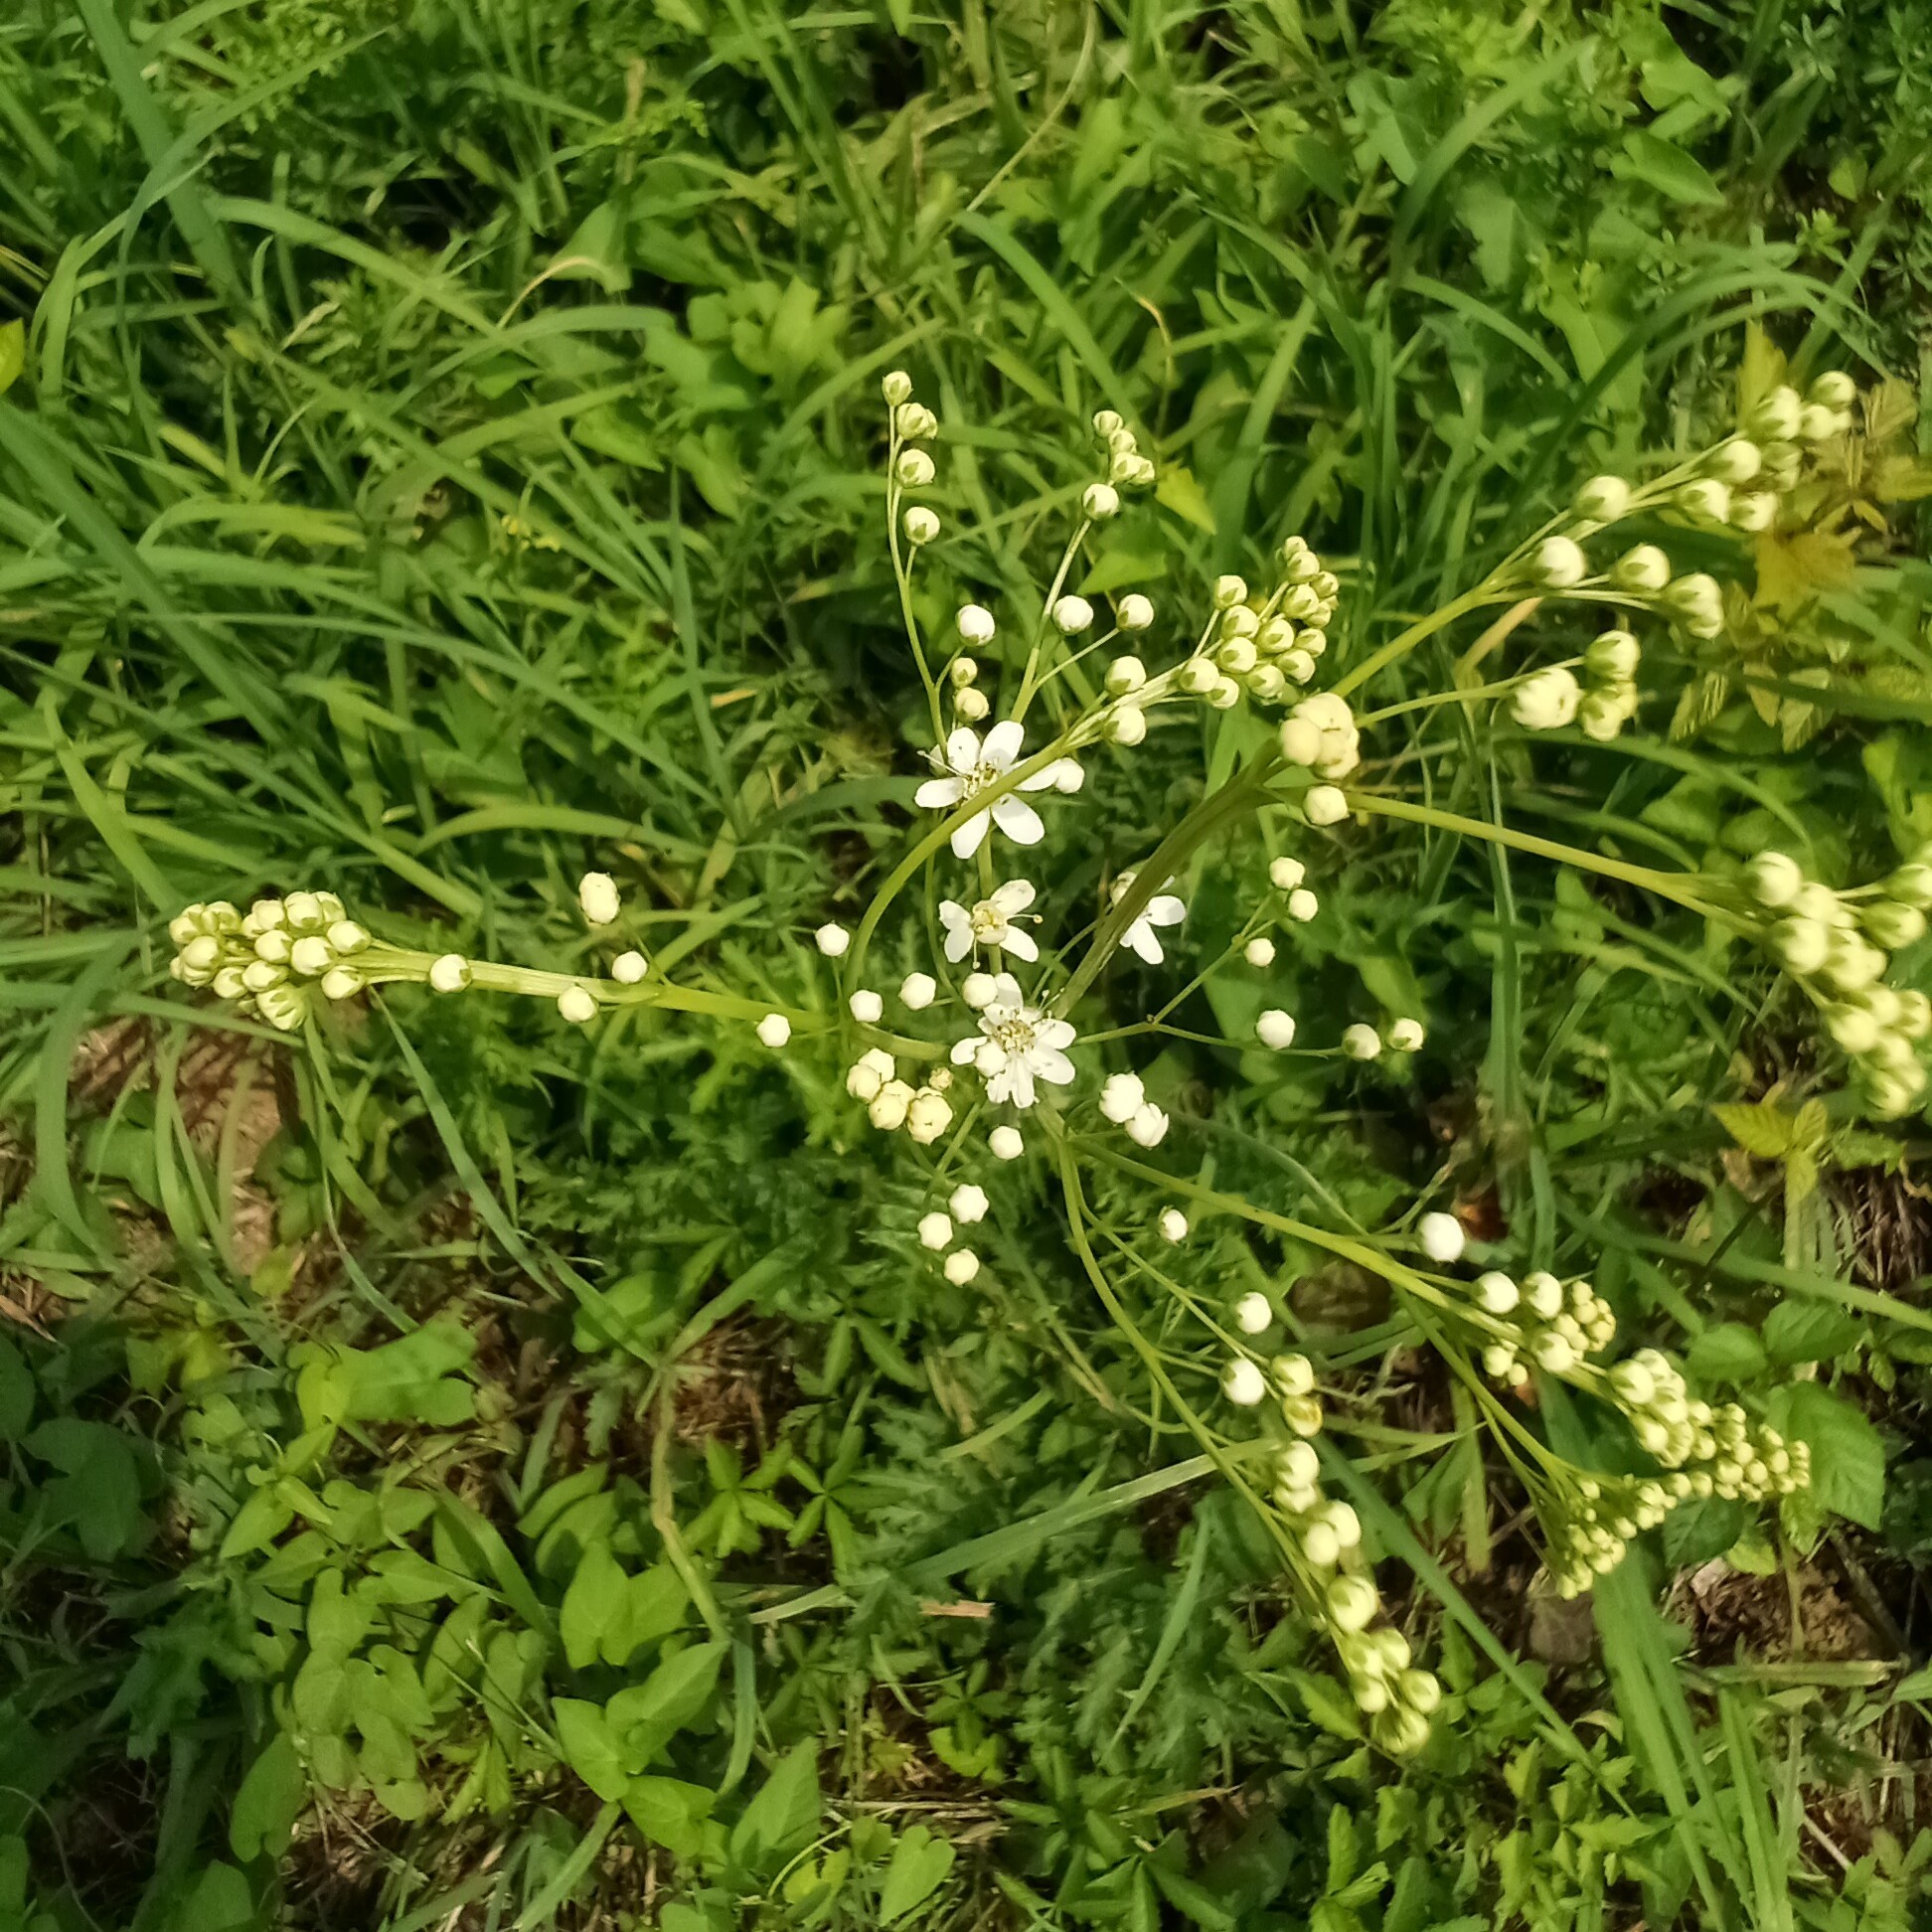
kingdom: Plantae
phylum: Tracheophyta
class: Magnoliopsida
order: Rosales
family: Rosaceae
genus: Filipendula
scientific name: Filipendula vulgaris
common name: Dropwort
